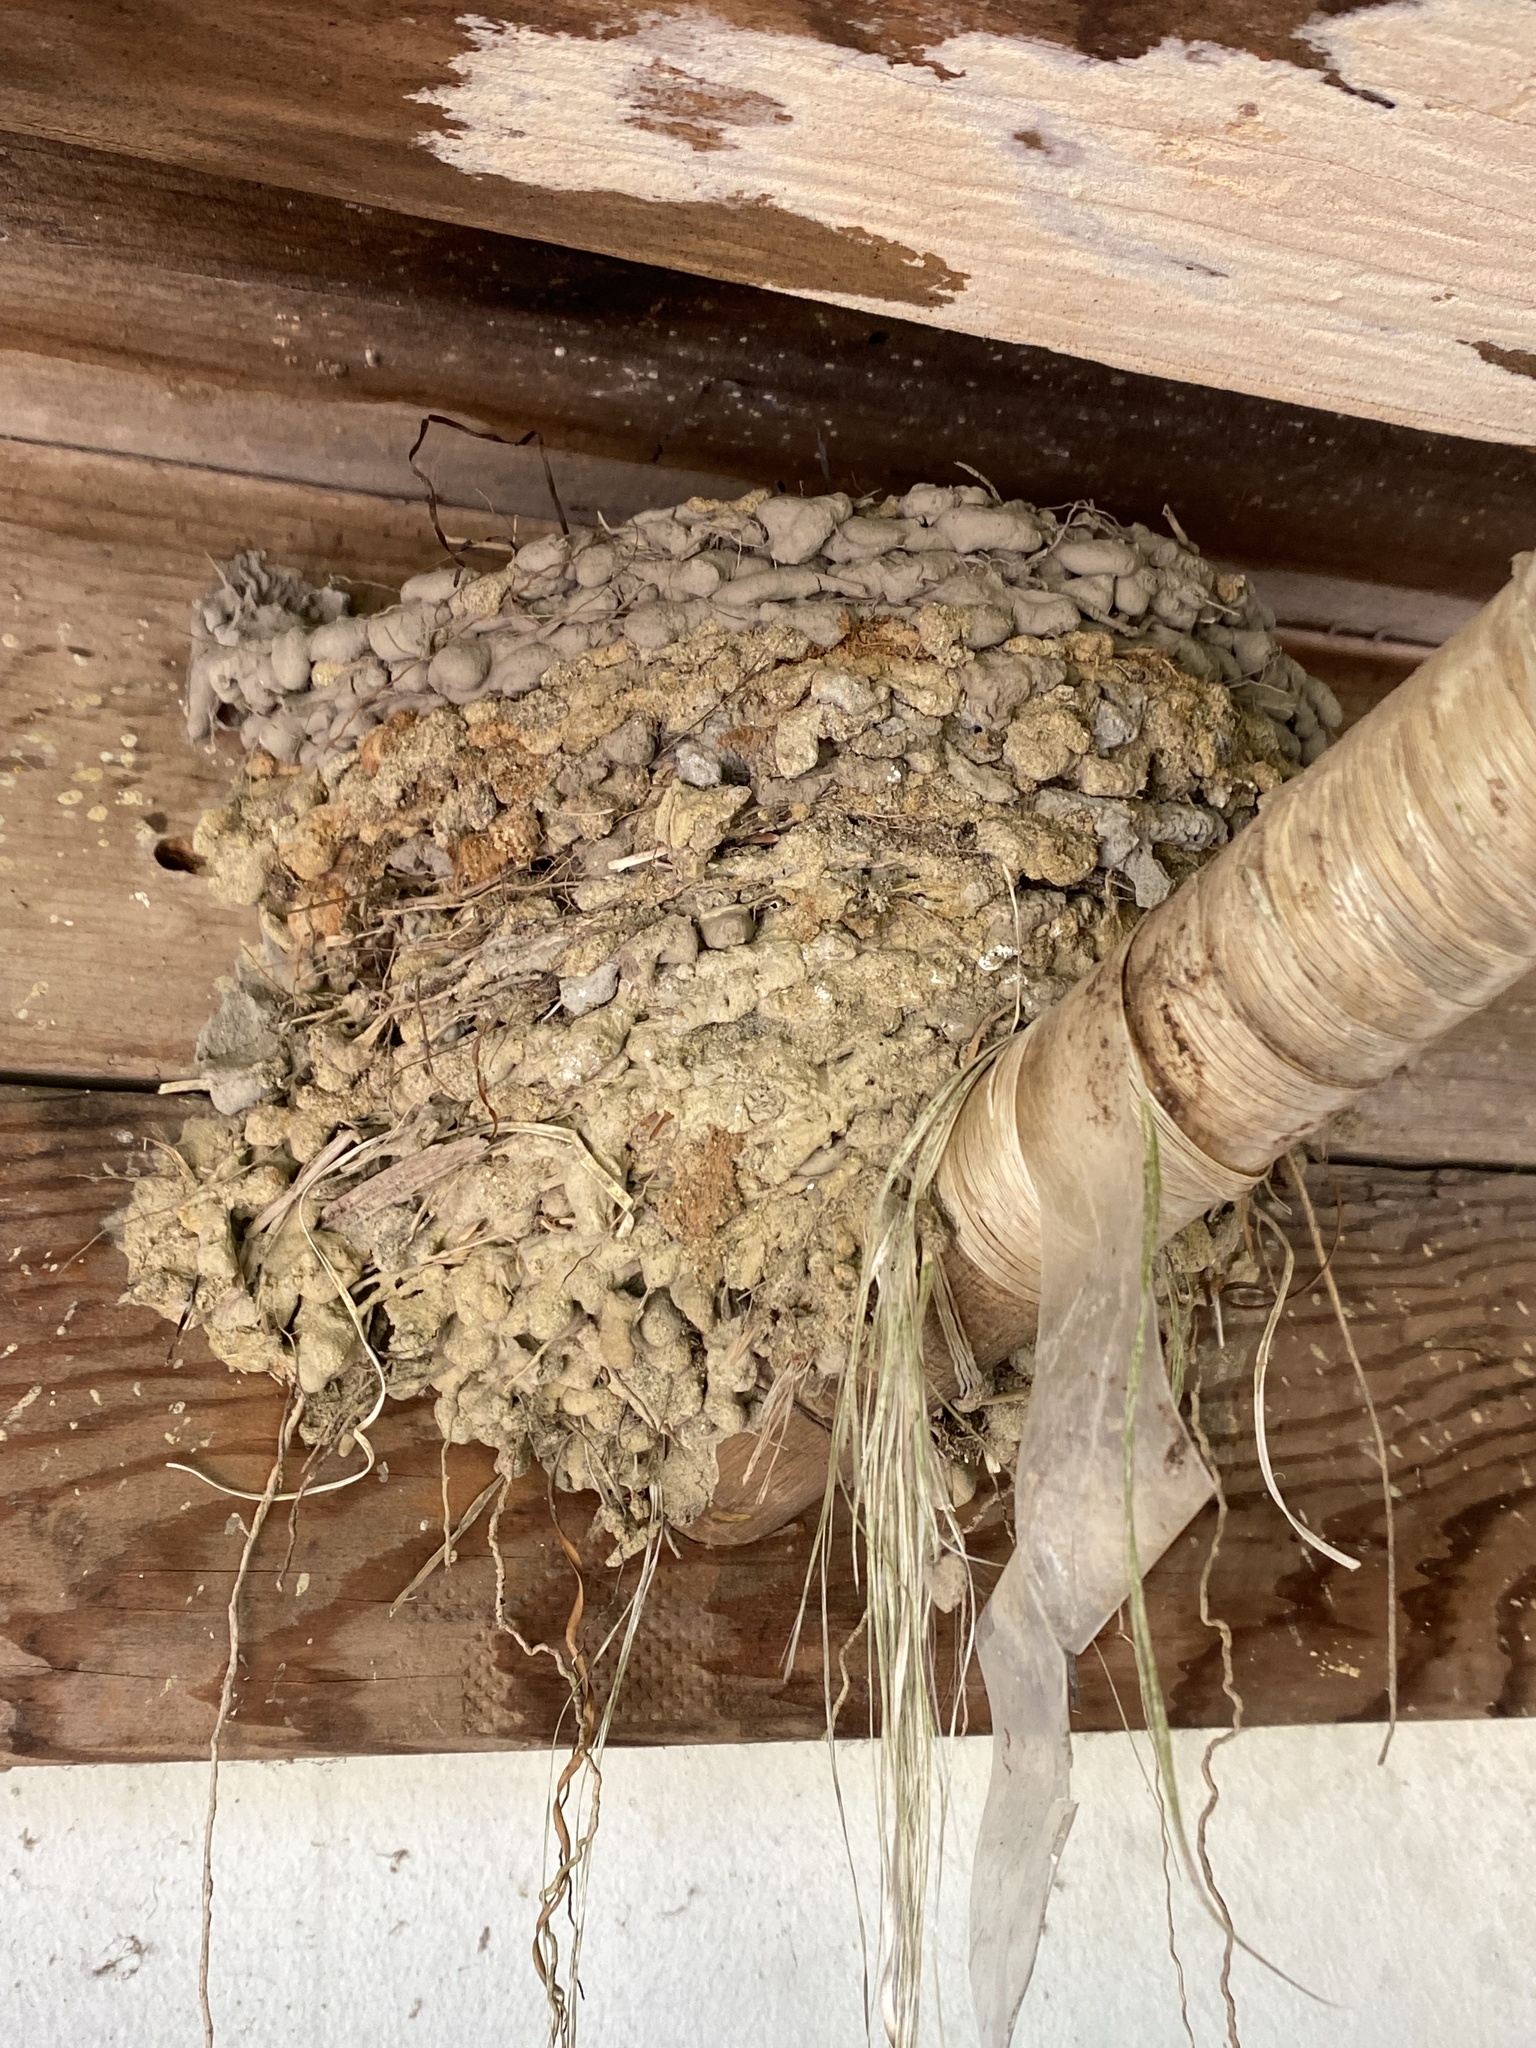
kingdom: Animalia
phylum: Chordata
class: Aves
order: Passeriformes
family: Hirundinidae
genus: Hirundo
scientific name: Hirundo rustica
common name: Barn swallow
